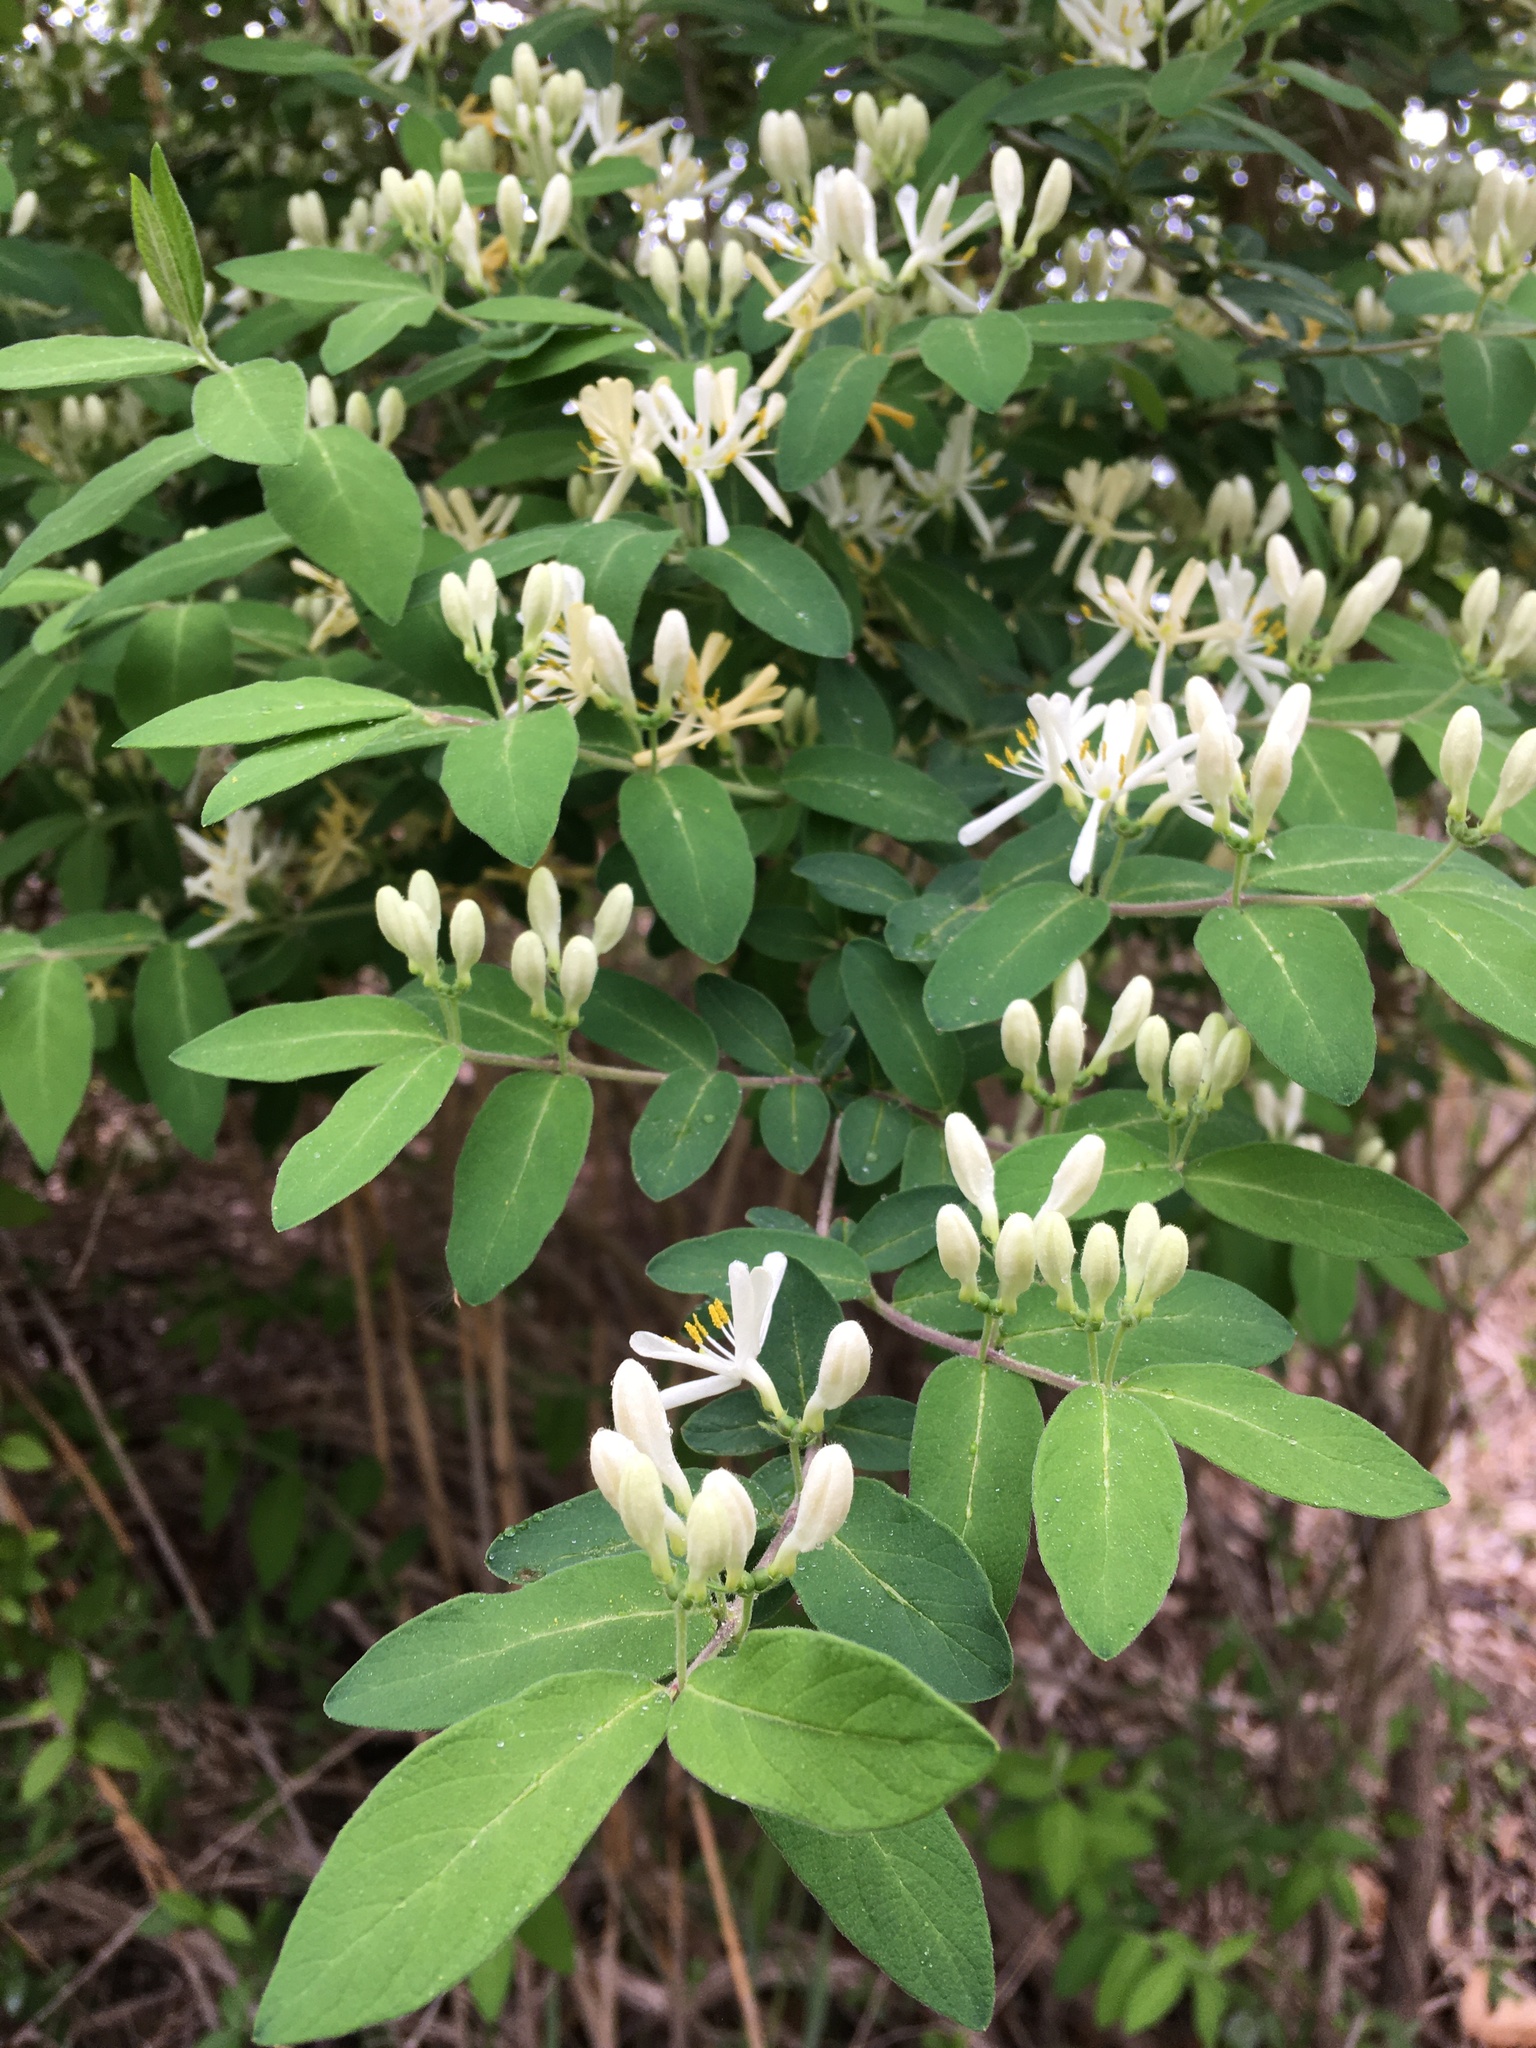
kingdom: Plantae
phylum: Tracheophyta
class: Magnoliopsida
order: Dipsacales
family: Caprifoliaceae
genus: Lonicera
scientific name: Lonicera morrowii
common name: Morrow's honeysuckle
